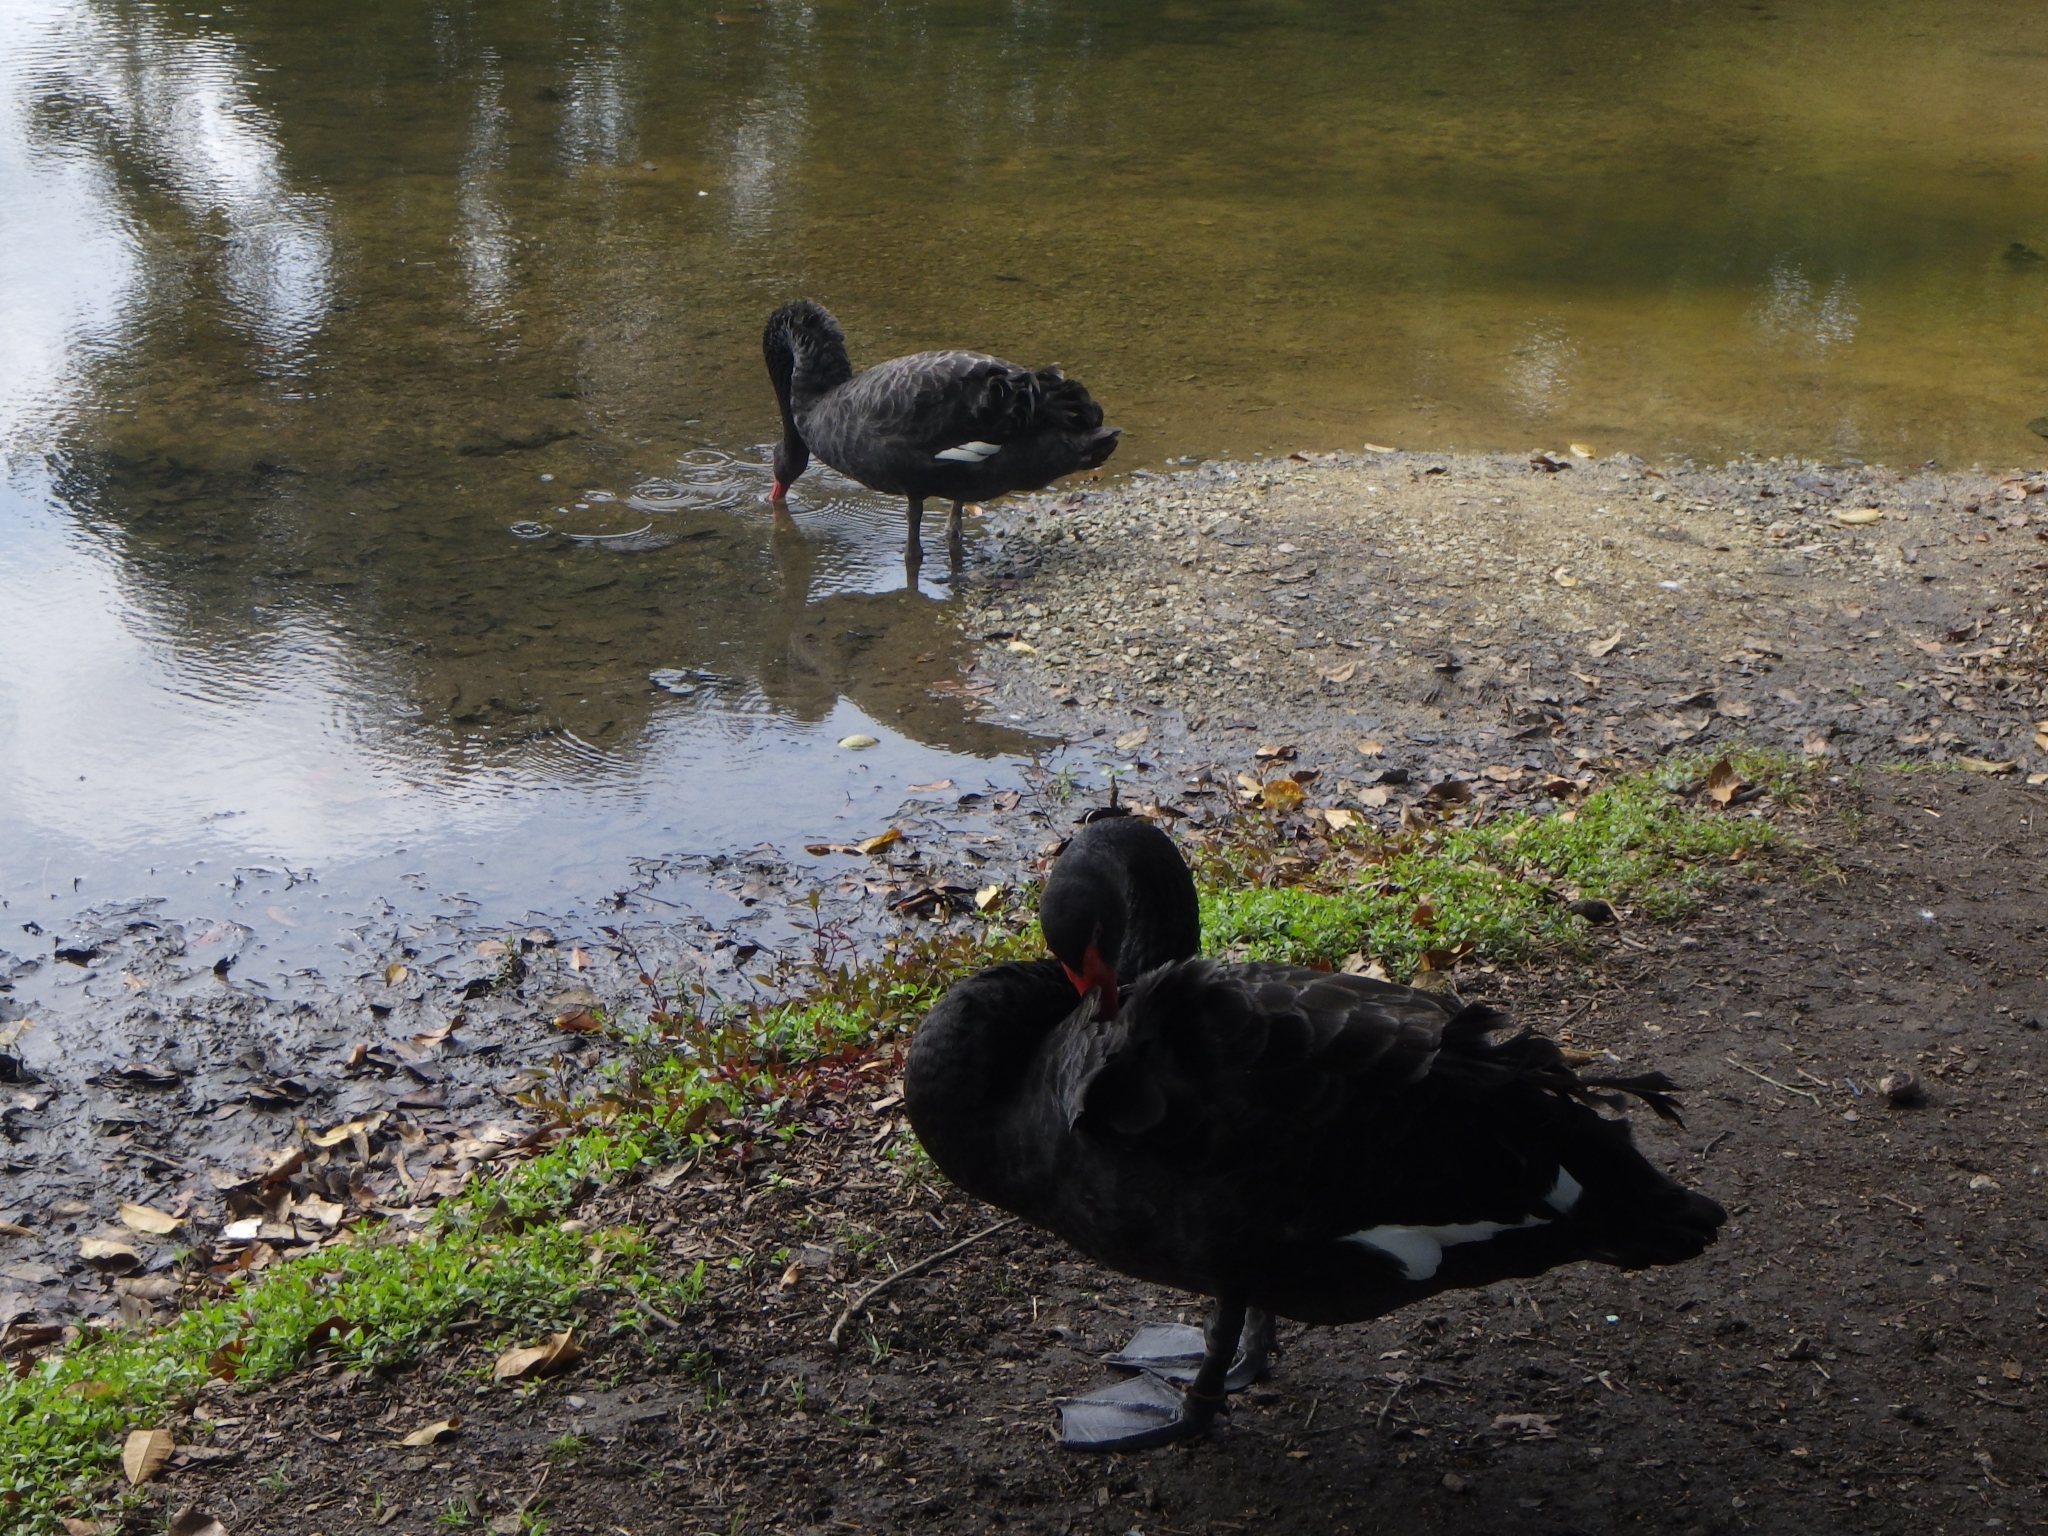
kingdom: Animalia
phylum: Chordata
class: Aves
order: Anseriformes
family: Anatidae
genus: Cygnus
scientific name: Cygnus atratus
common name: Black swan
